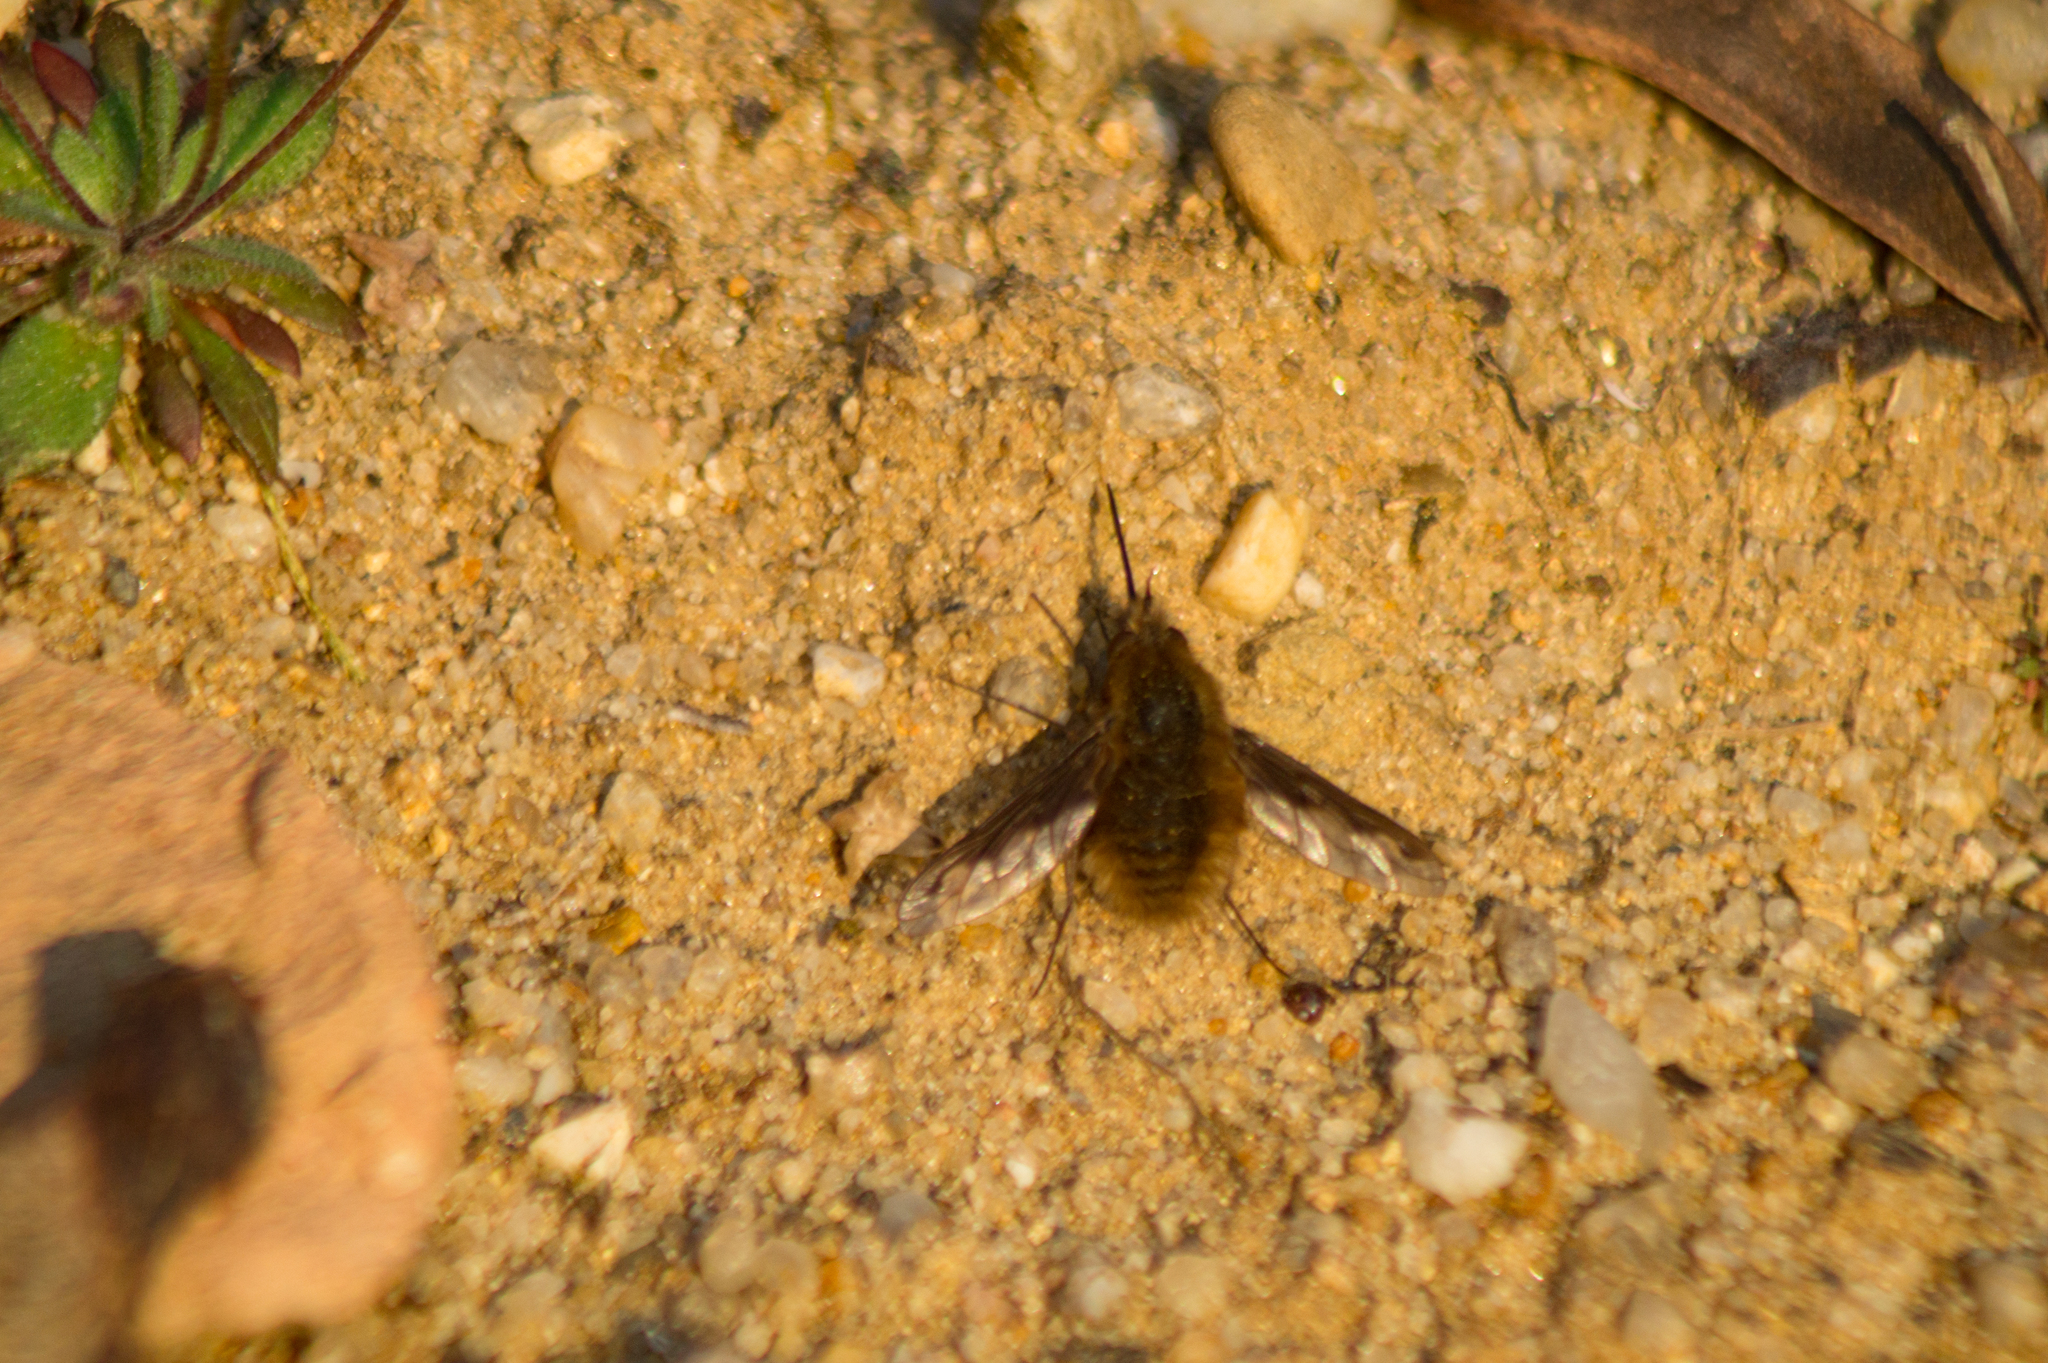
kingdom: Animalia
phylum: Arthropoda
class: Insecta
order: Diptera
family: Bombyliidae
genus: Bombylius
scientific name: Bombylius major
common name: Bee fly
